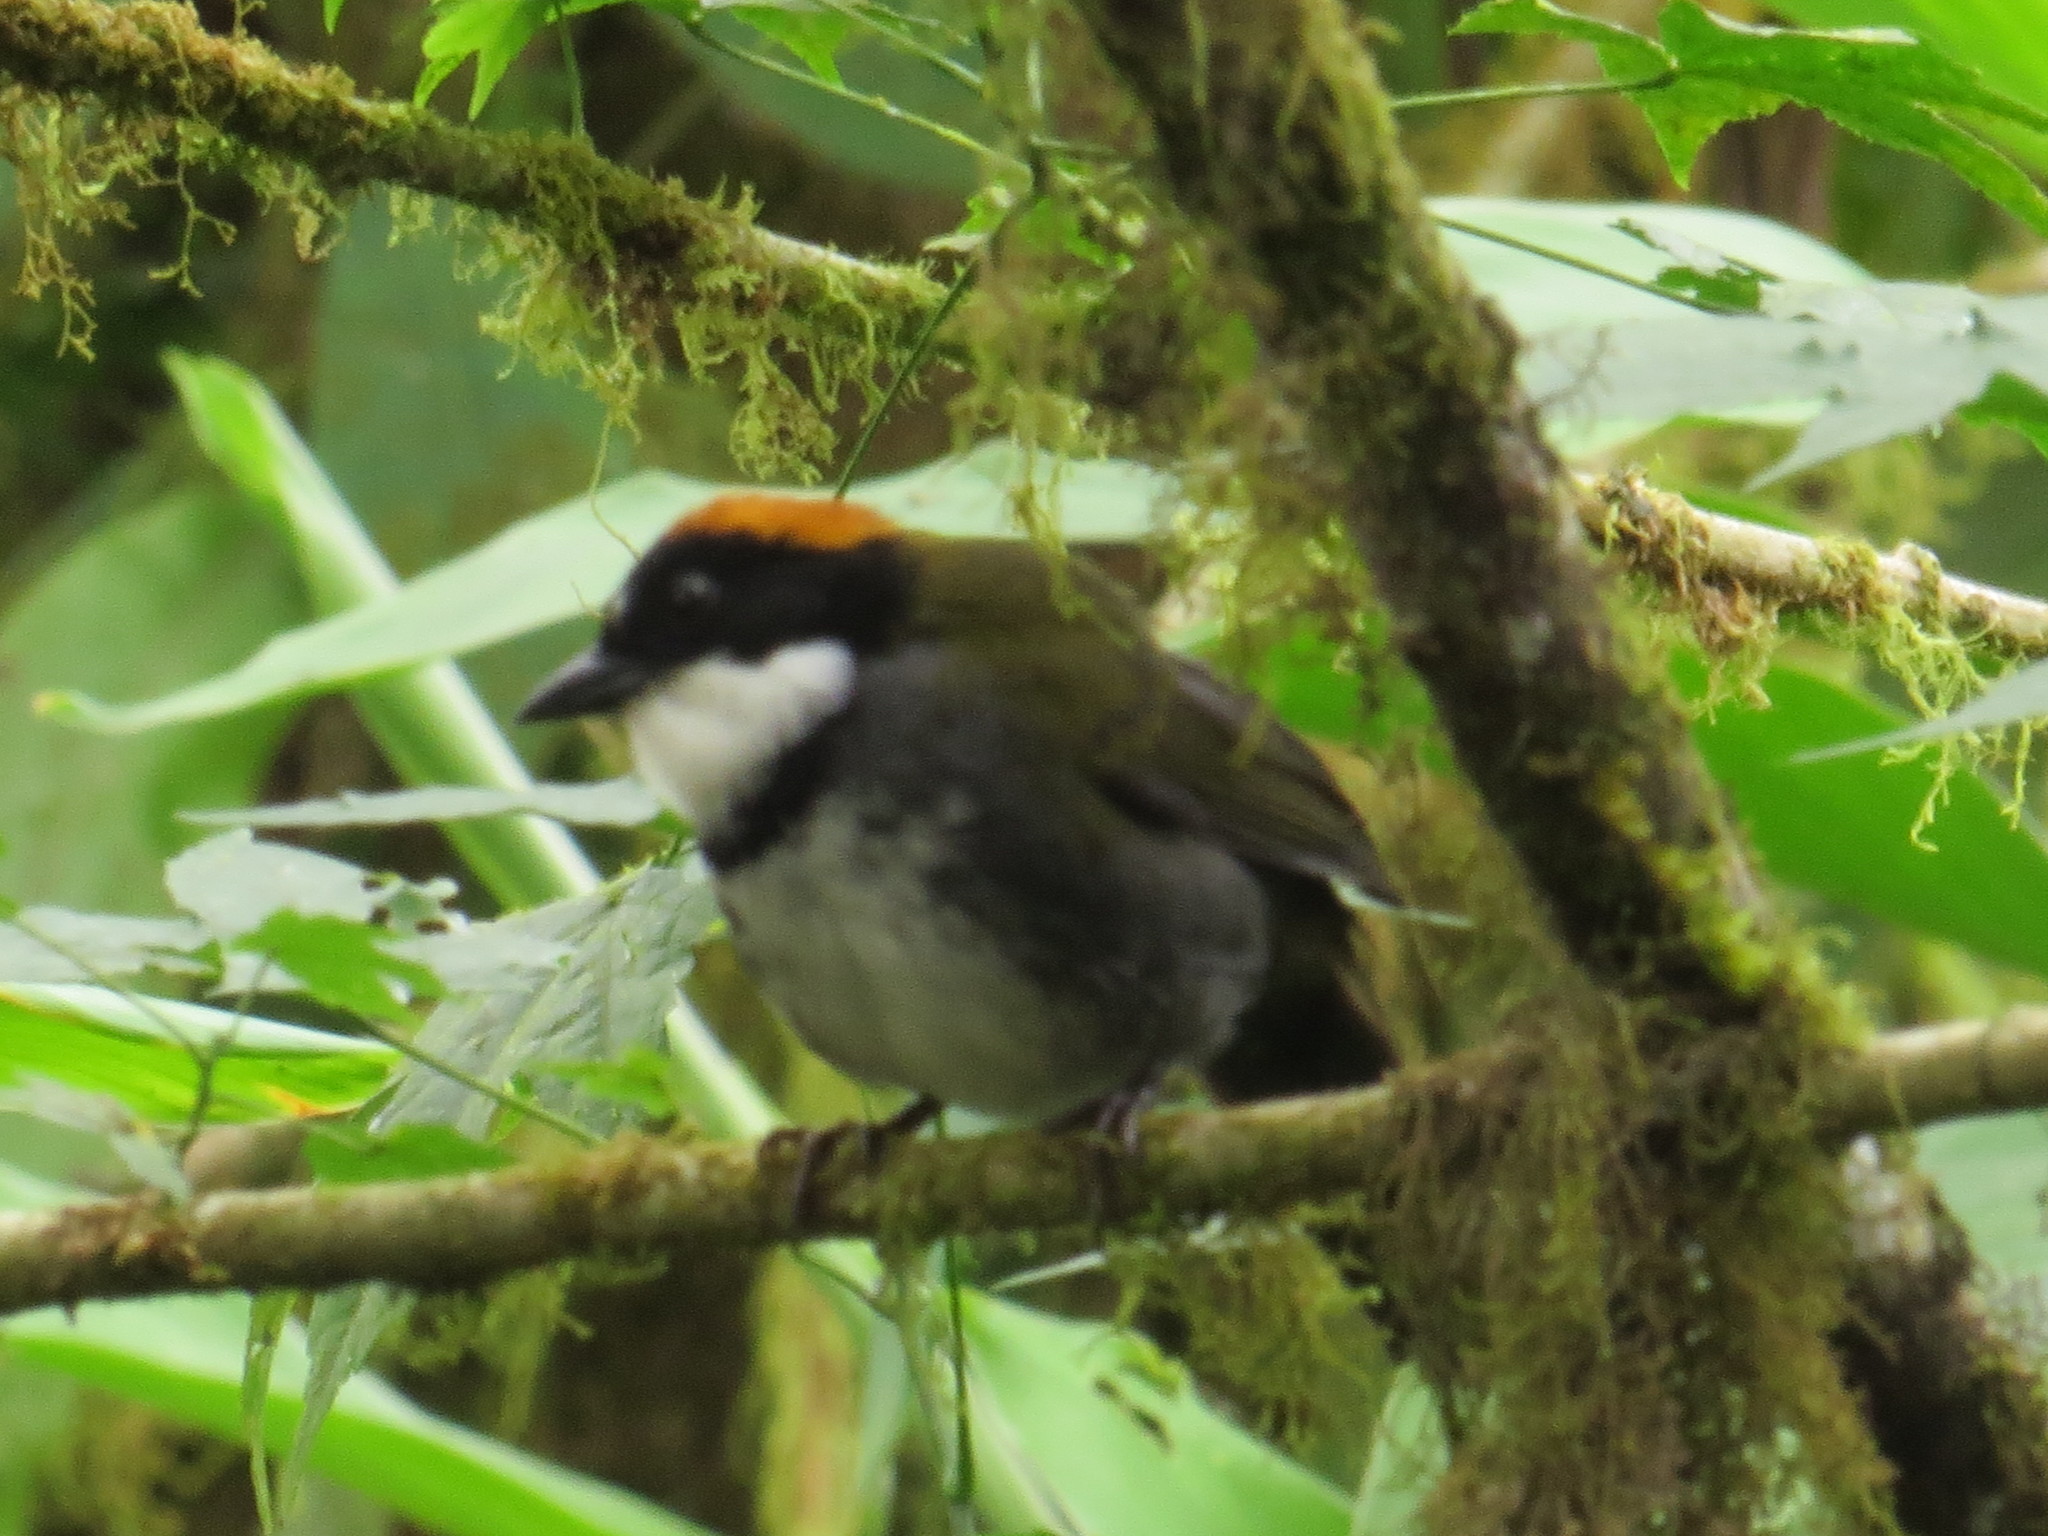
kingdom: Animalia
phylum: Chordata
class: Aves
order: Passeriformes
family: Passerellidae
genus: Arremon
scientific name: Arremon brunneinucha
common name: Chestnut-capped brushfinch
